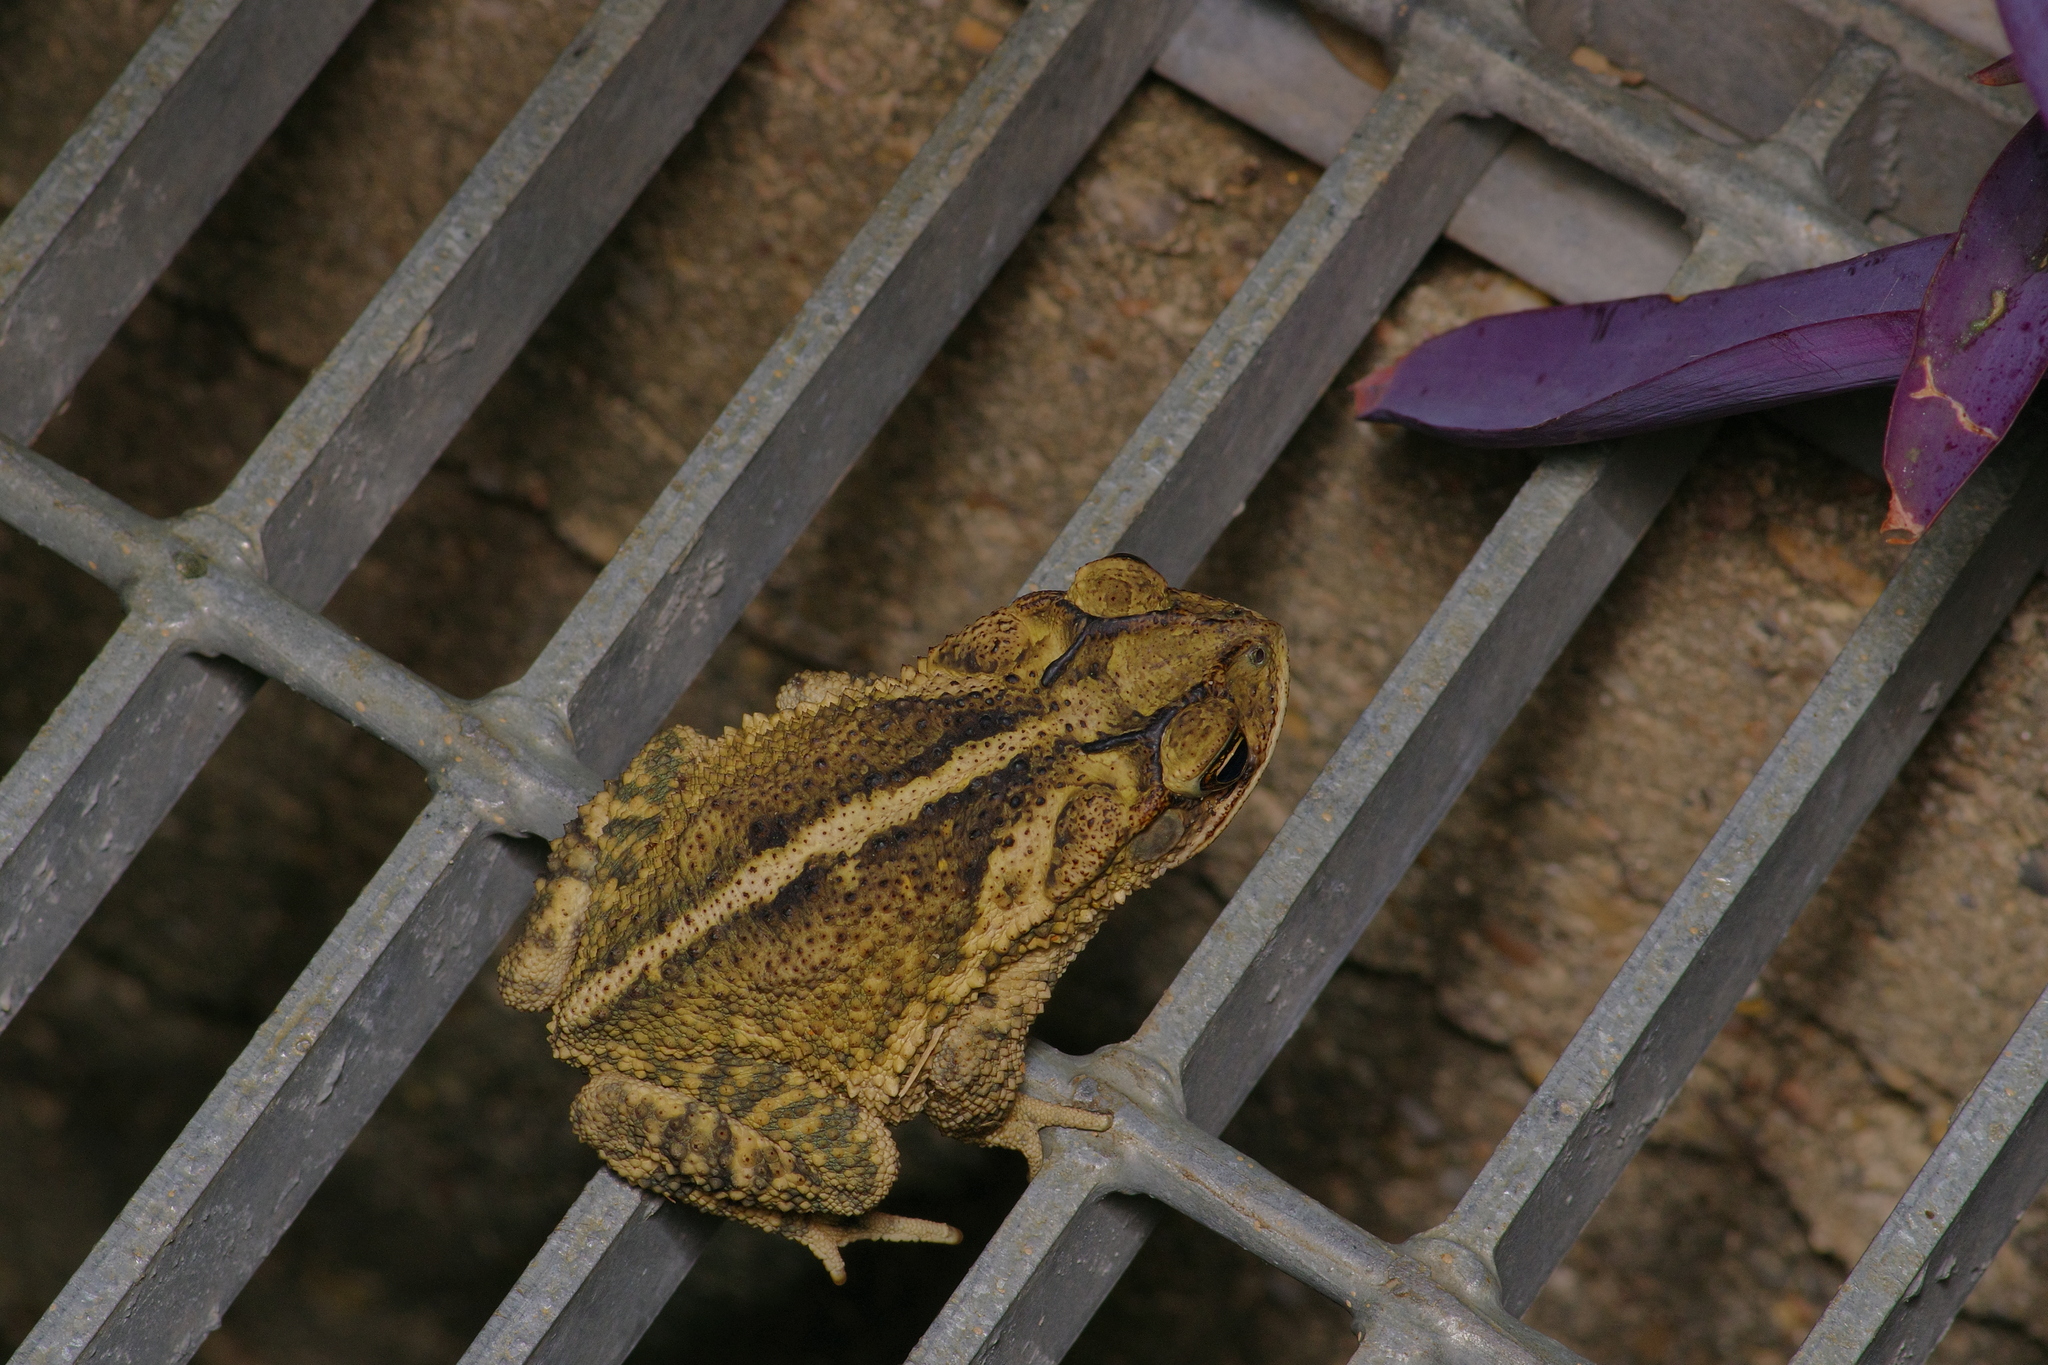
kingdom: Animalia
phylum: Chordata
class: Amphibia
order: Anura
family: Bufonidae
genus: Incilius
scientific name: Incilius nebulifer
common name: Gulf coast toad
